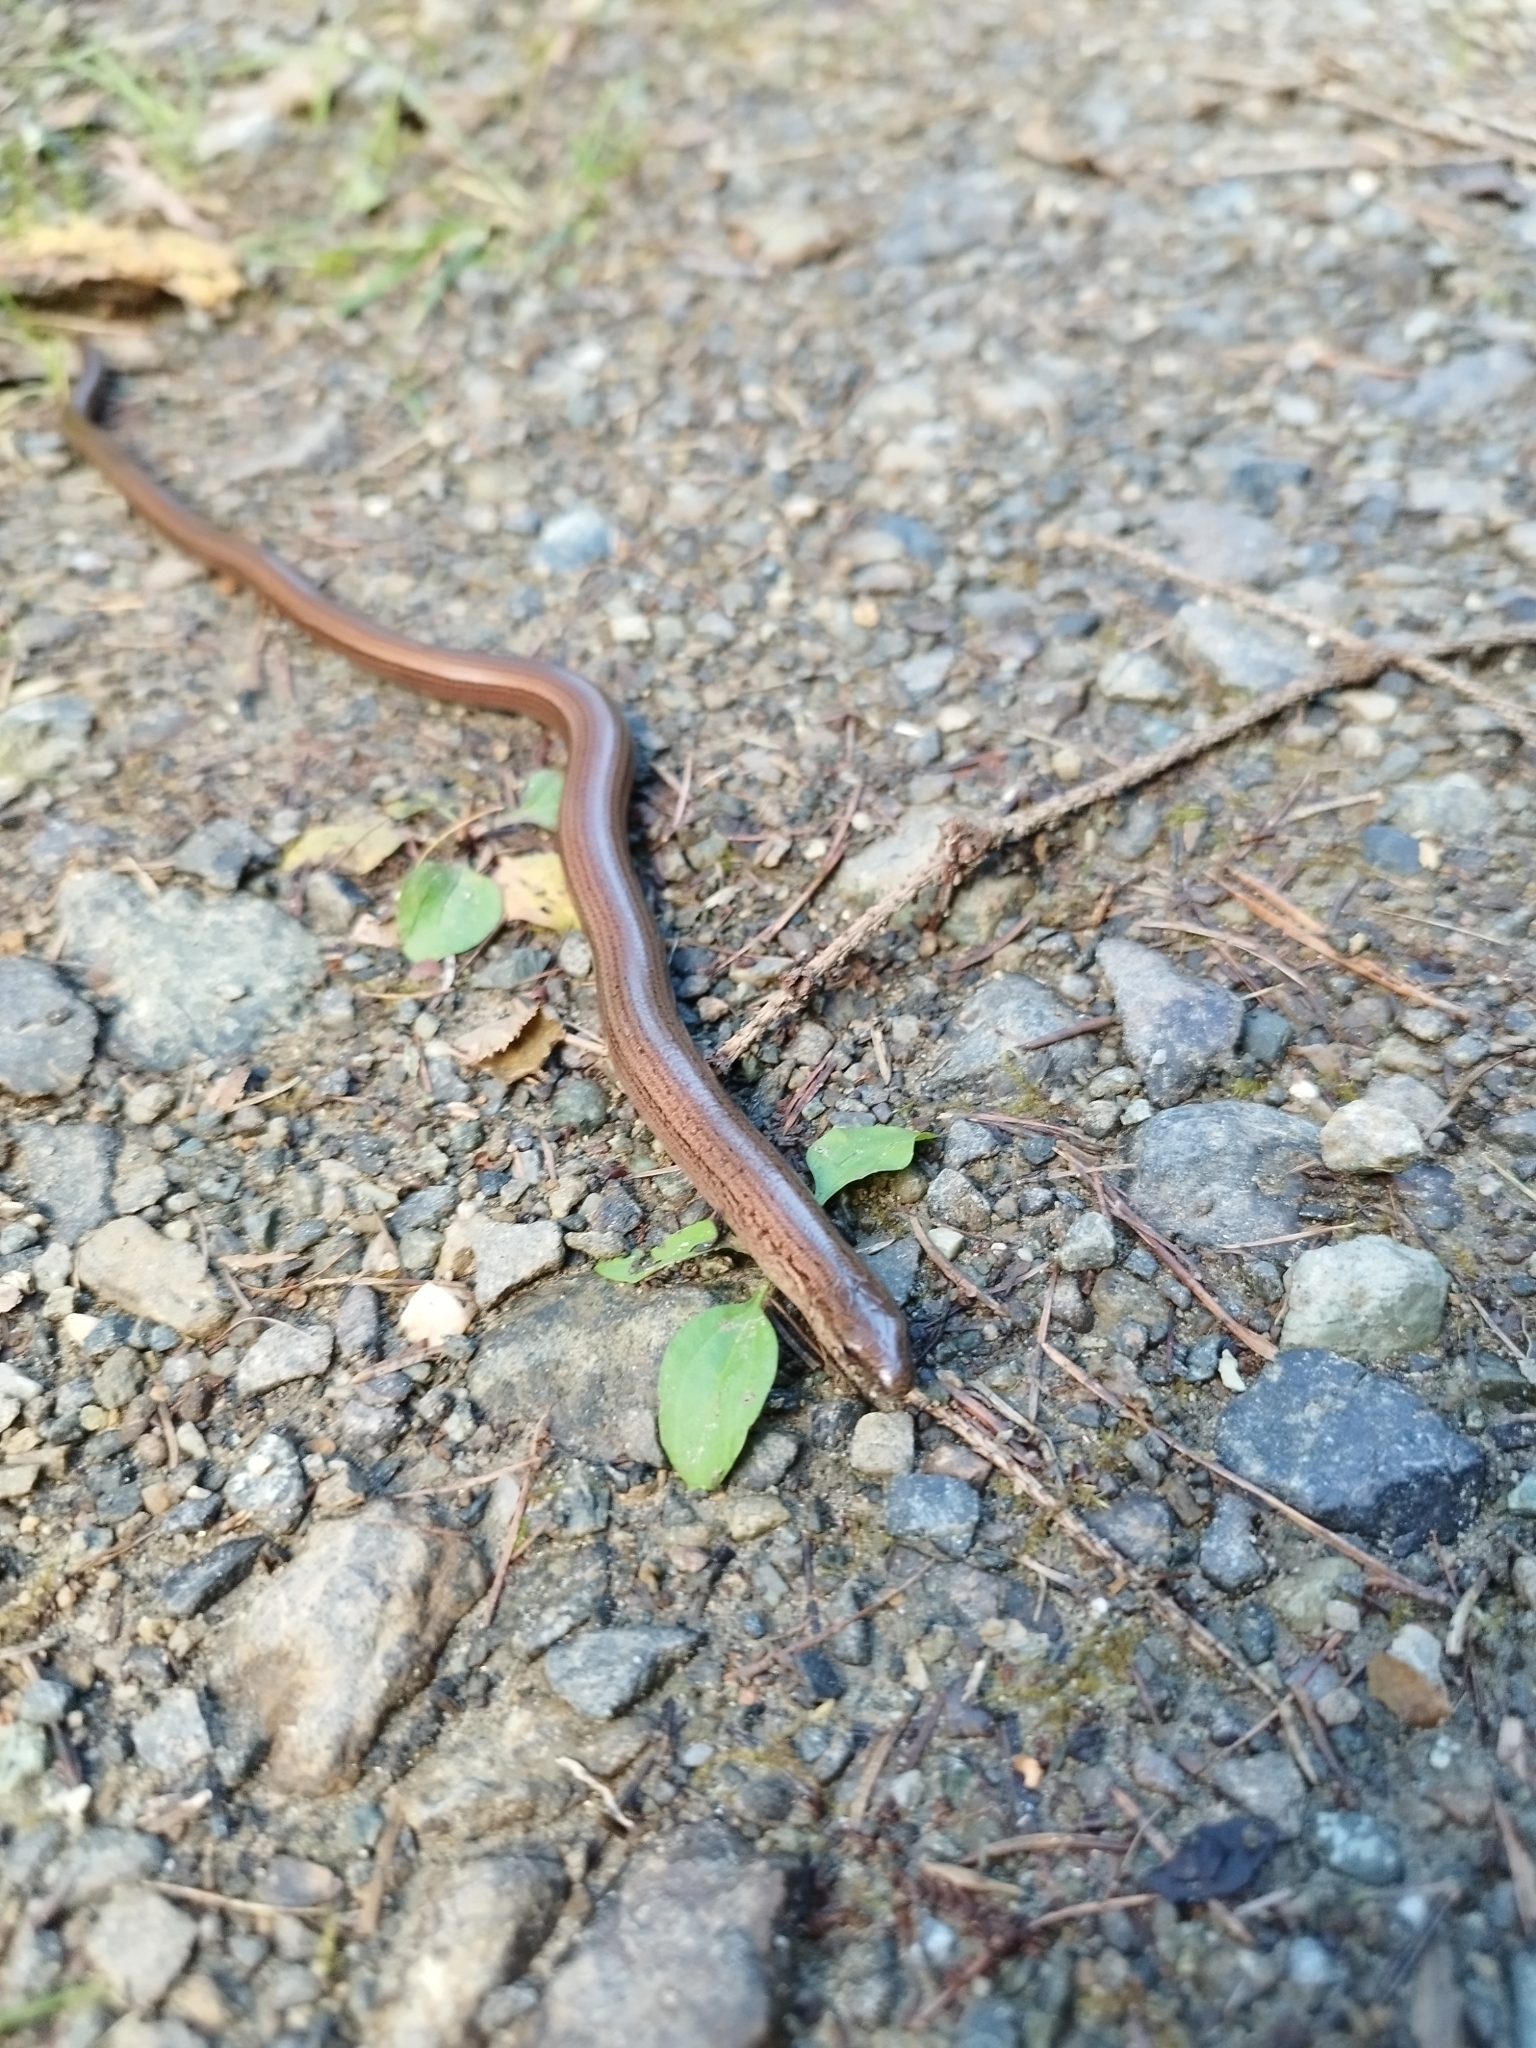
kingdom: Animalia
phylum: Chordata
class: Squamata
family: Anguidae
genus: Anguis
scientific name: Anguis fragilis
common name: Slow worm
